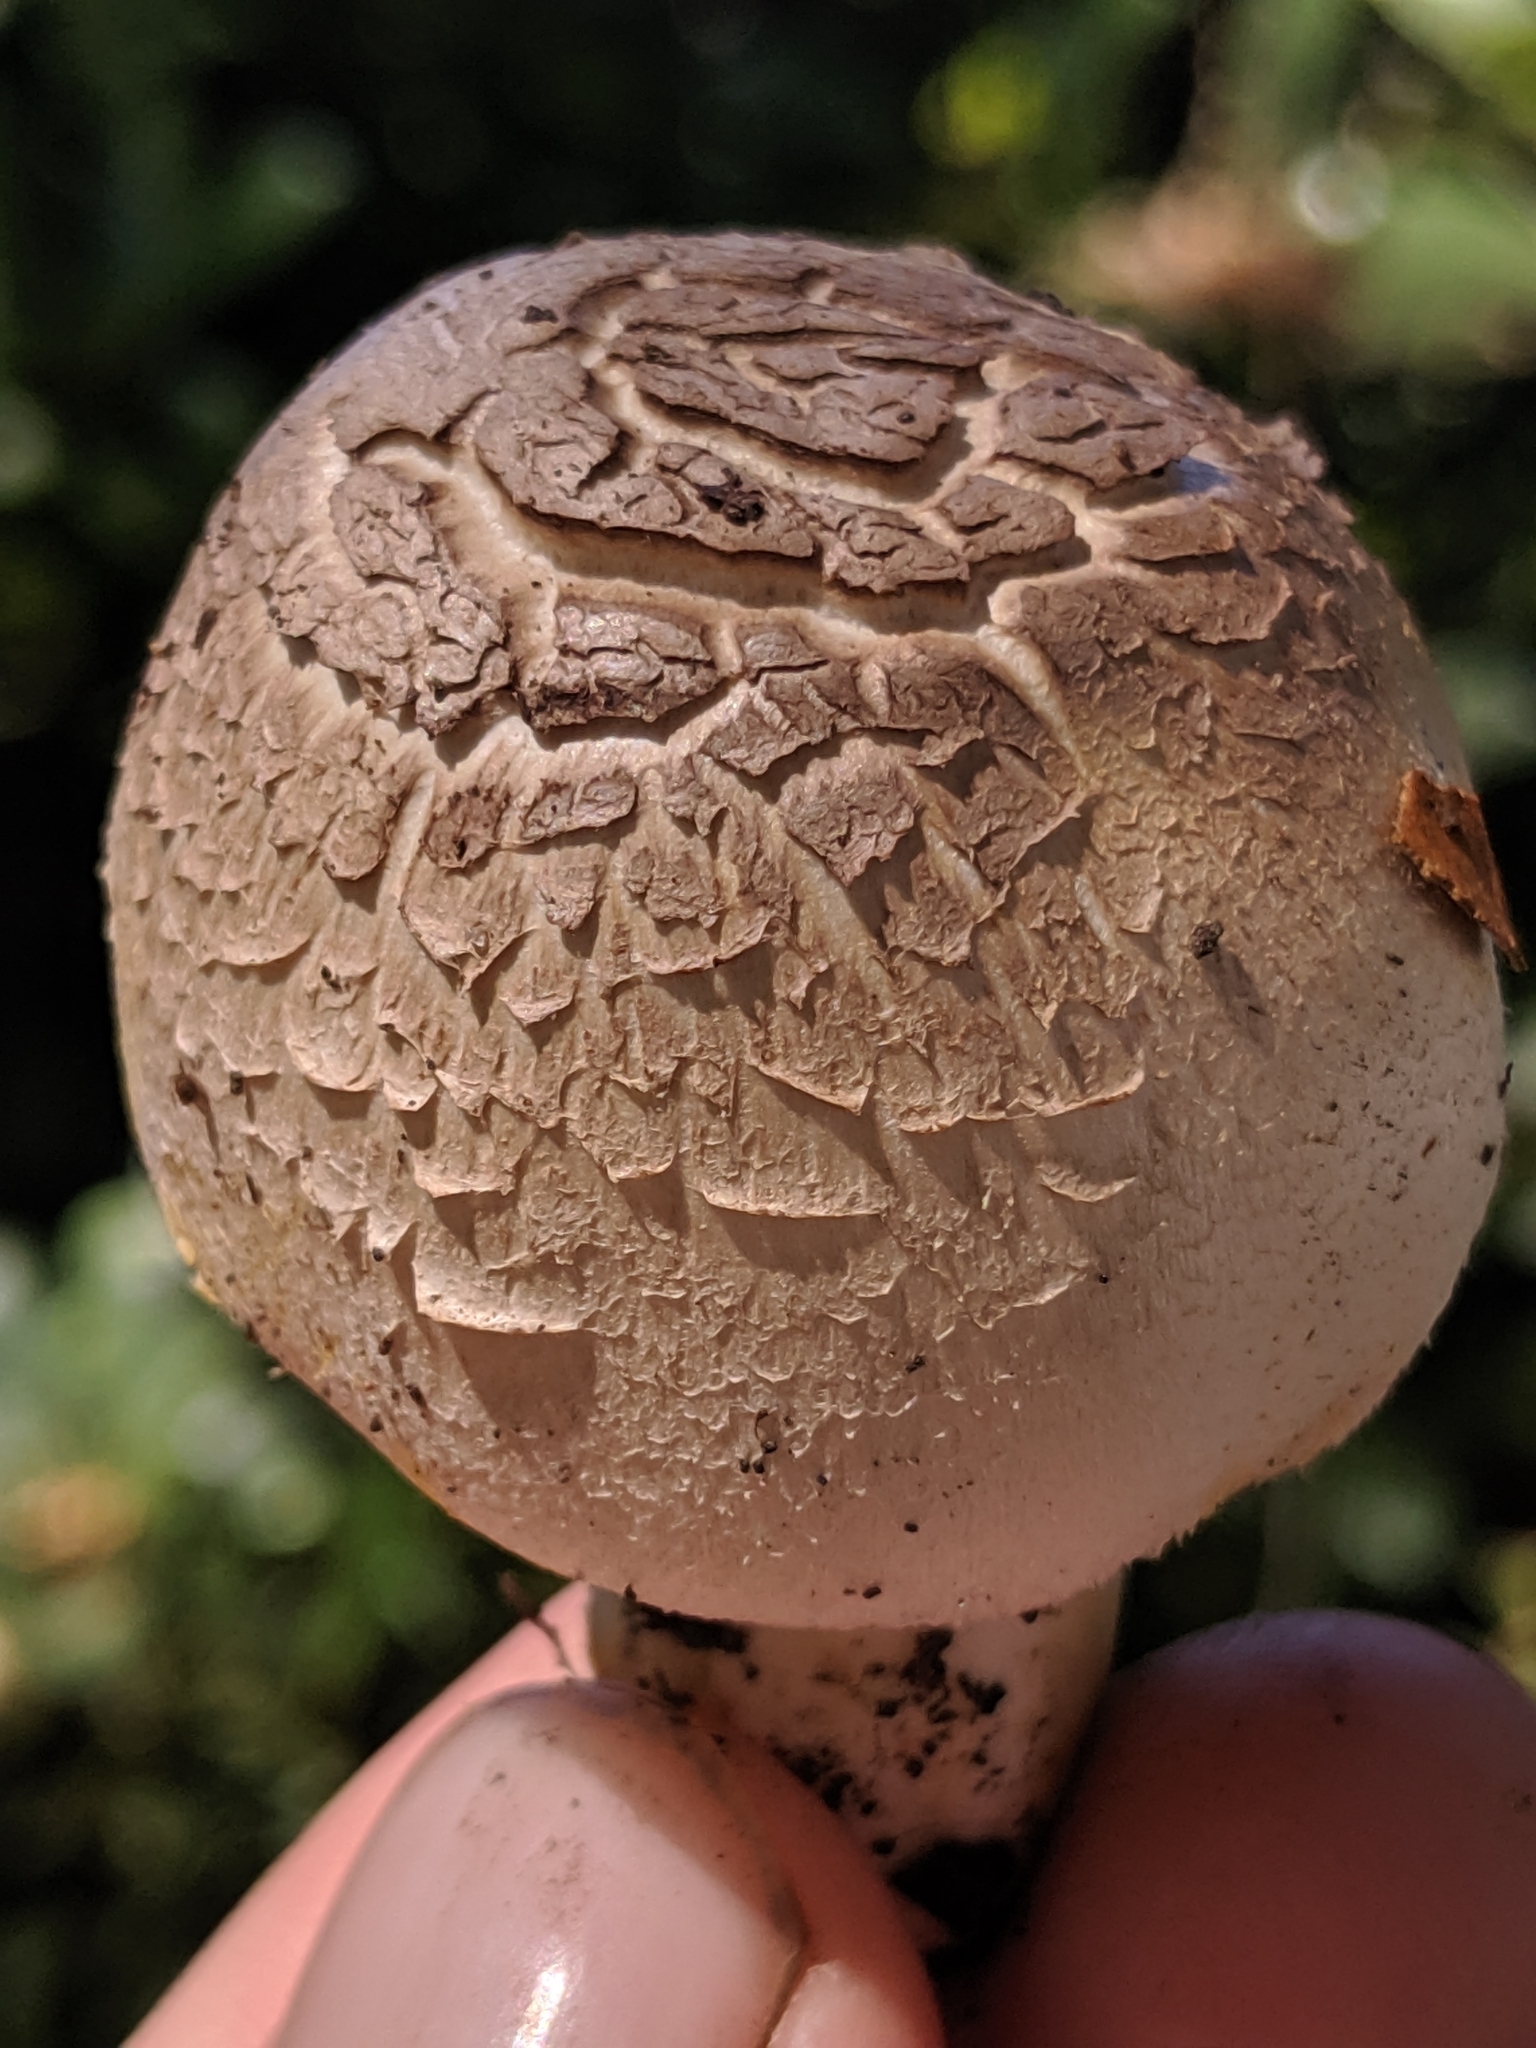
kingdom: Fungi
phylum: Basidiomycota
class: Agaricomycetes
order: Agaricales
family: Agaricaceae
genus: Agaricus
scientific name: Agaricus xanthodermus
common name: Yellow stainer
